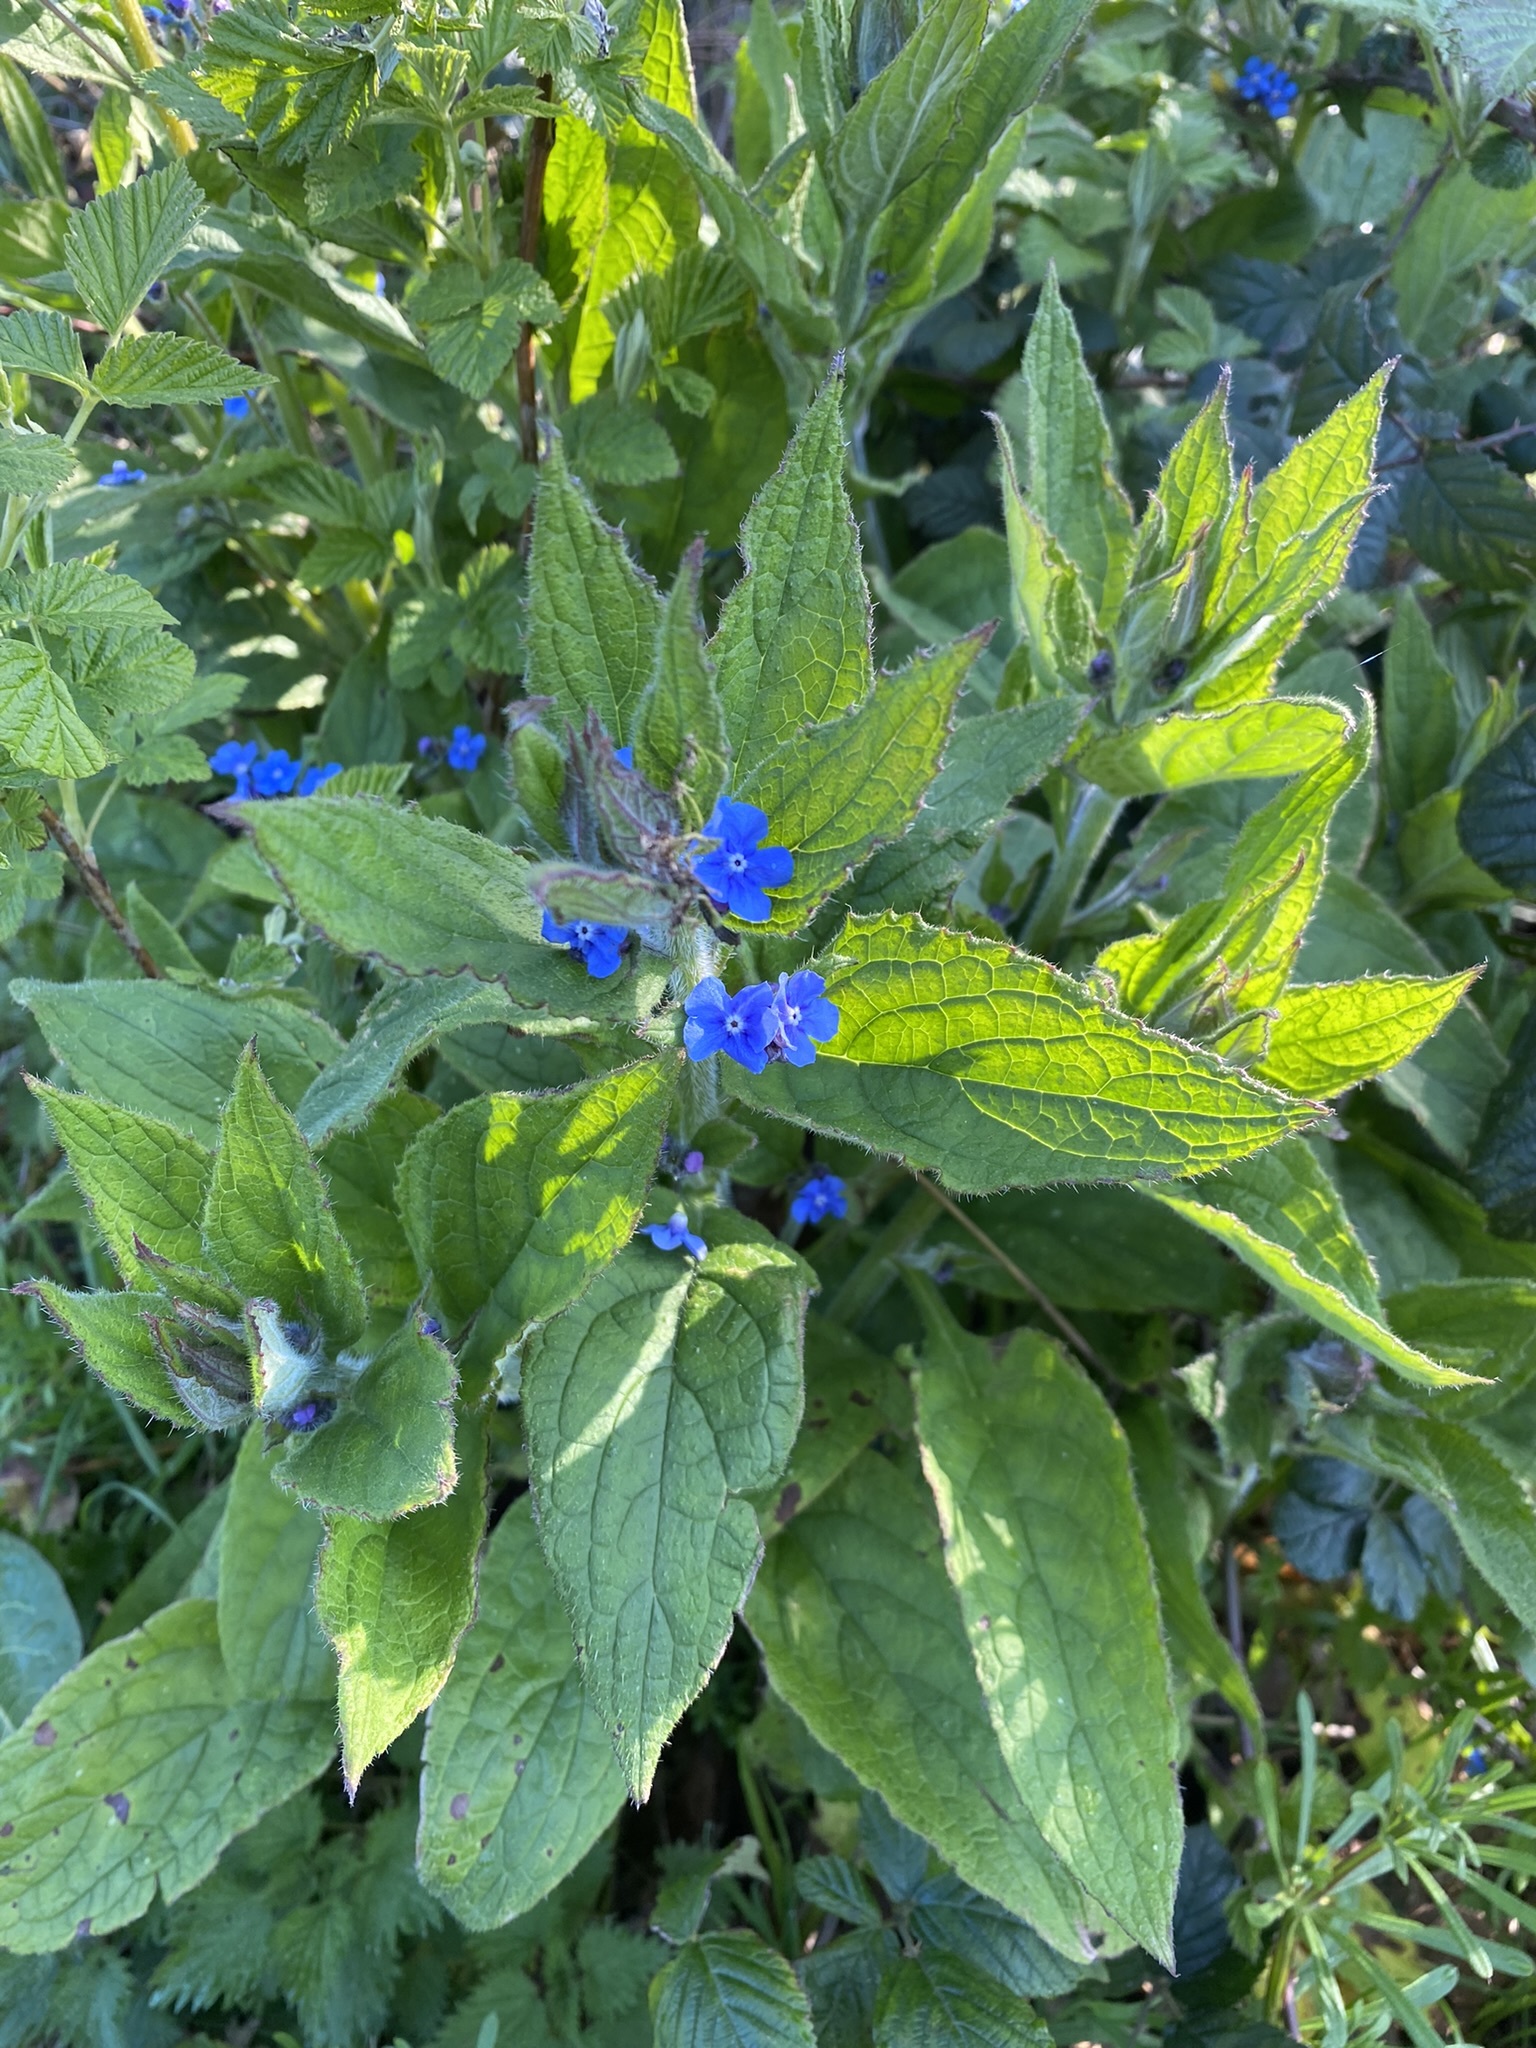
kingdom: Plantae
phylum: Tracheophyta
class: Magnoliopsida
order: Boraginales
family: Boraginaceae
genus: Pentaglottis
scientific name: Pentaglottis sempervirens
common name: Green alkanet
